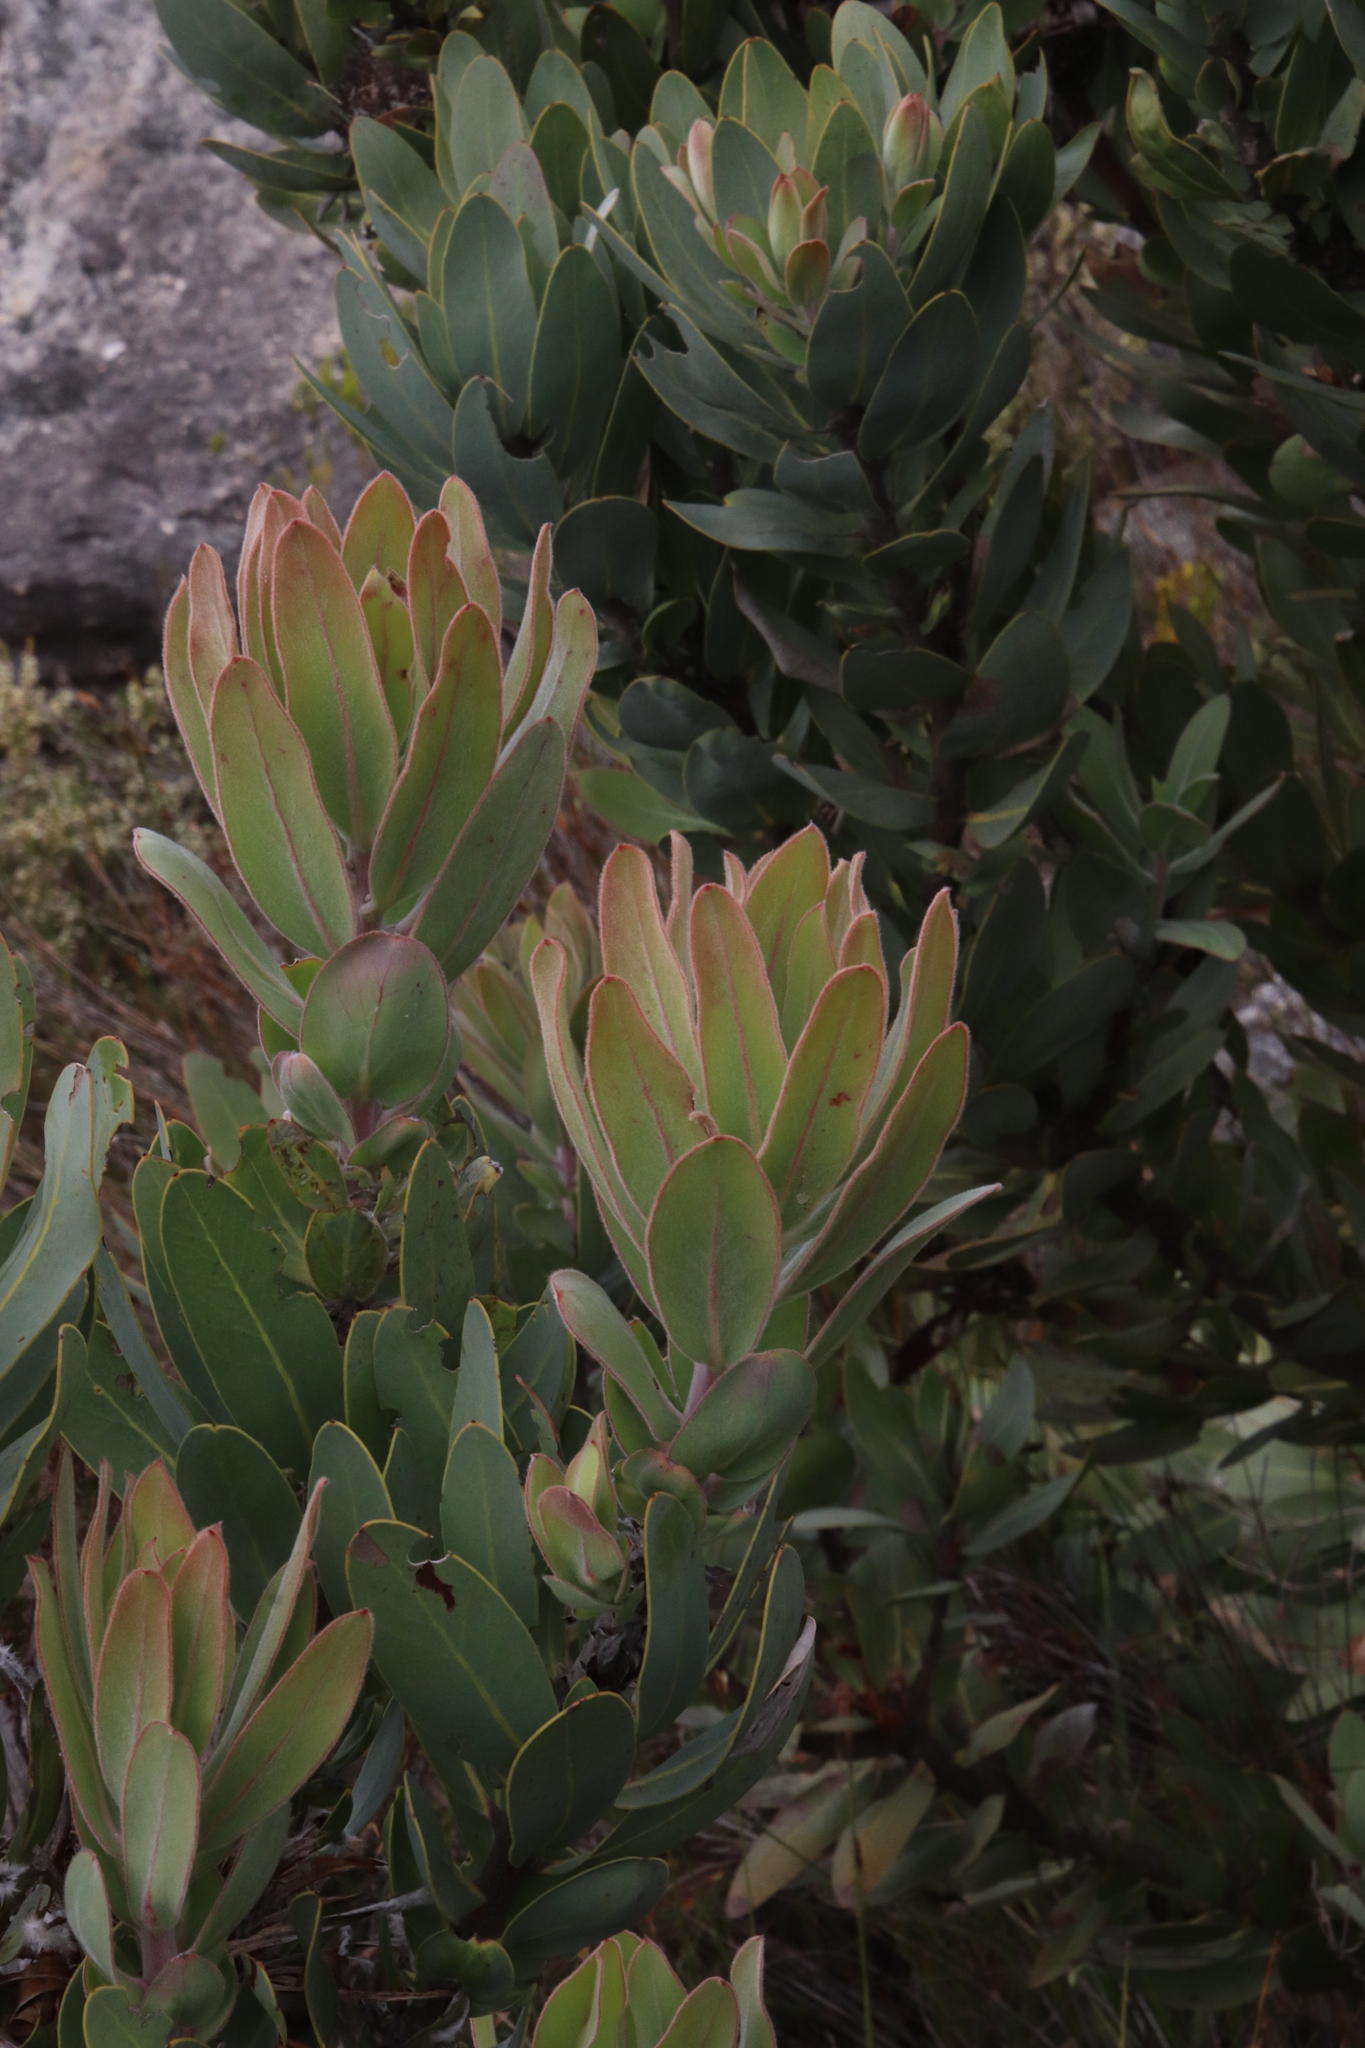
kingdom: Plantae
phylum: Tracheophyta
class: Magnoliopsida
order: Proteales
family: Proteaceae
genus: Protea
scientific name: Protea laurifolia
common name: Grey-leaf sugarbsh
